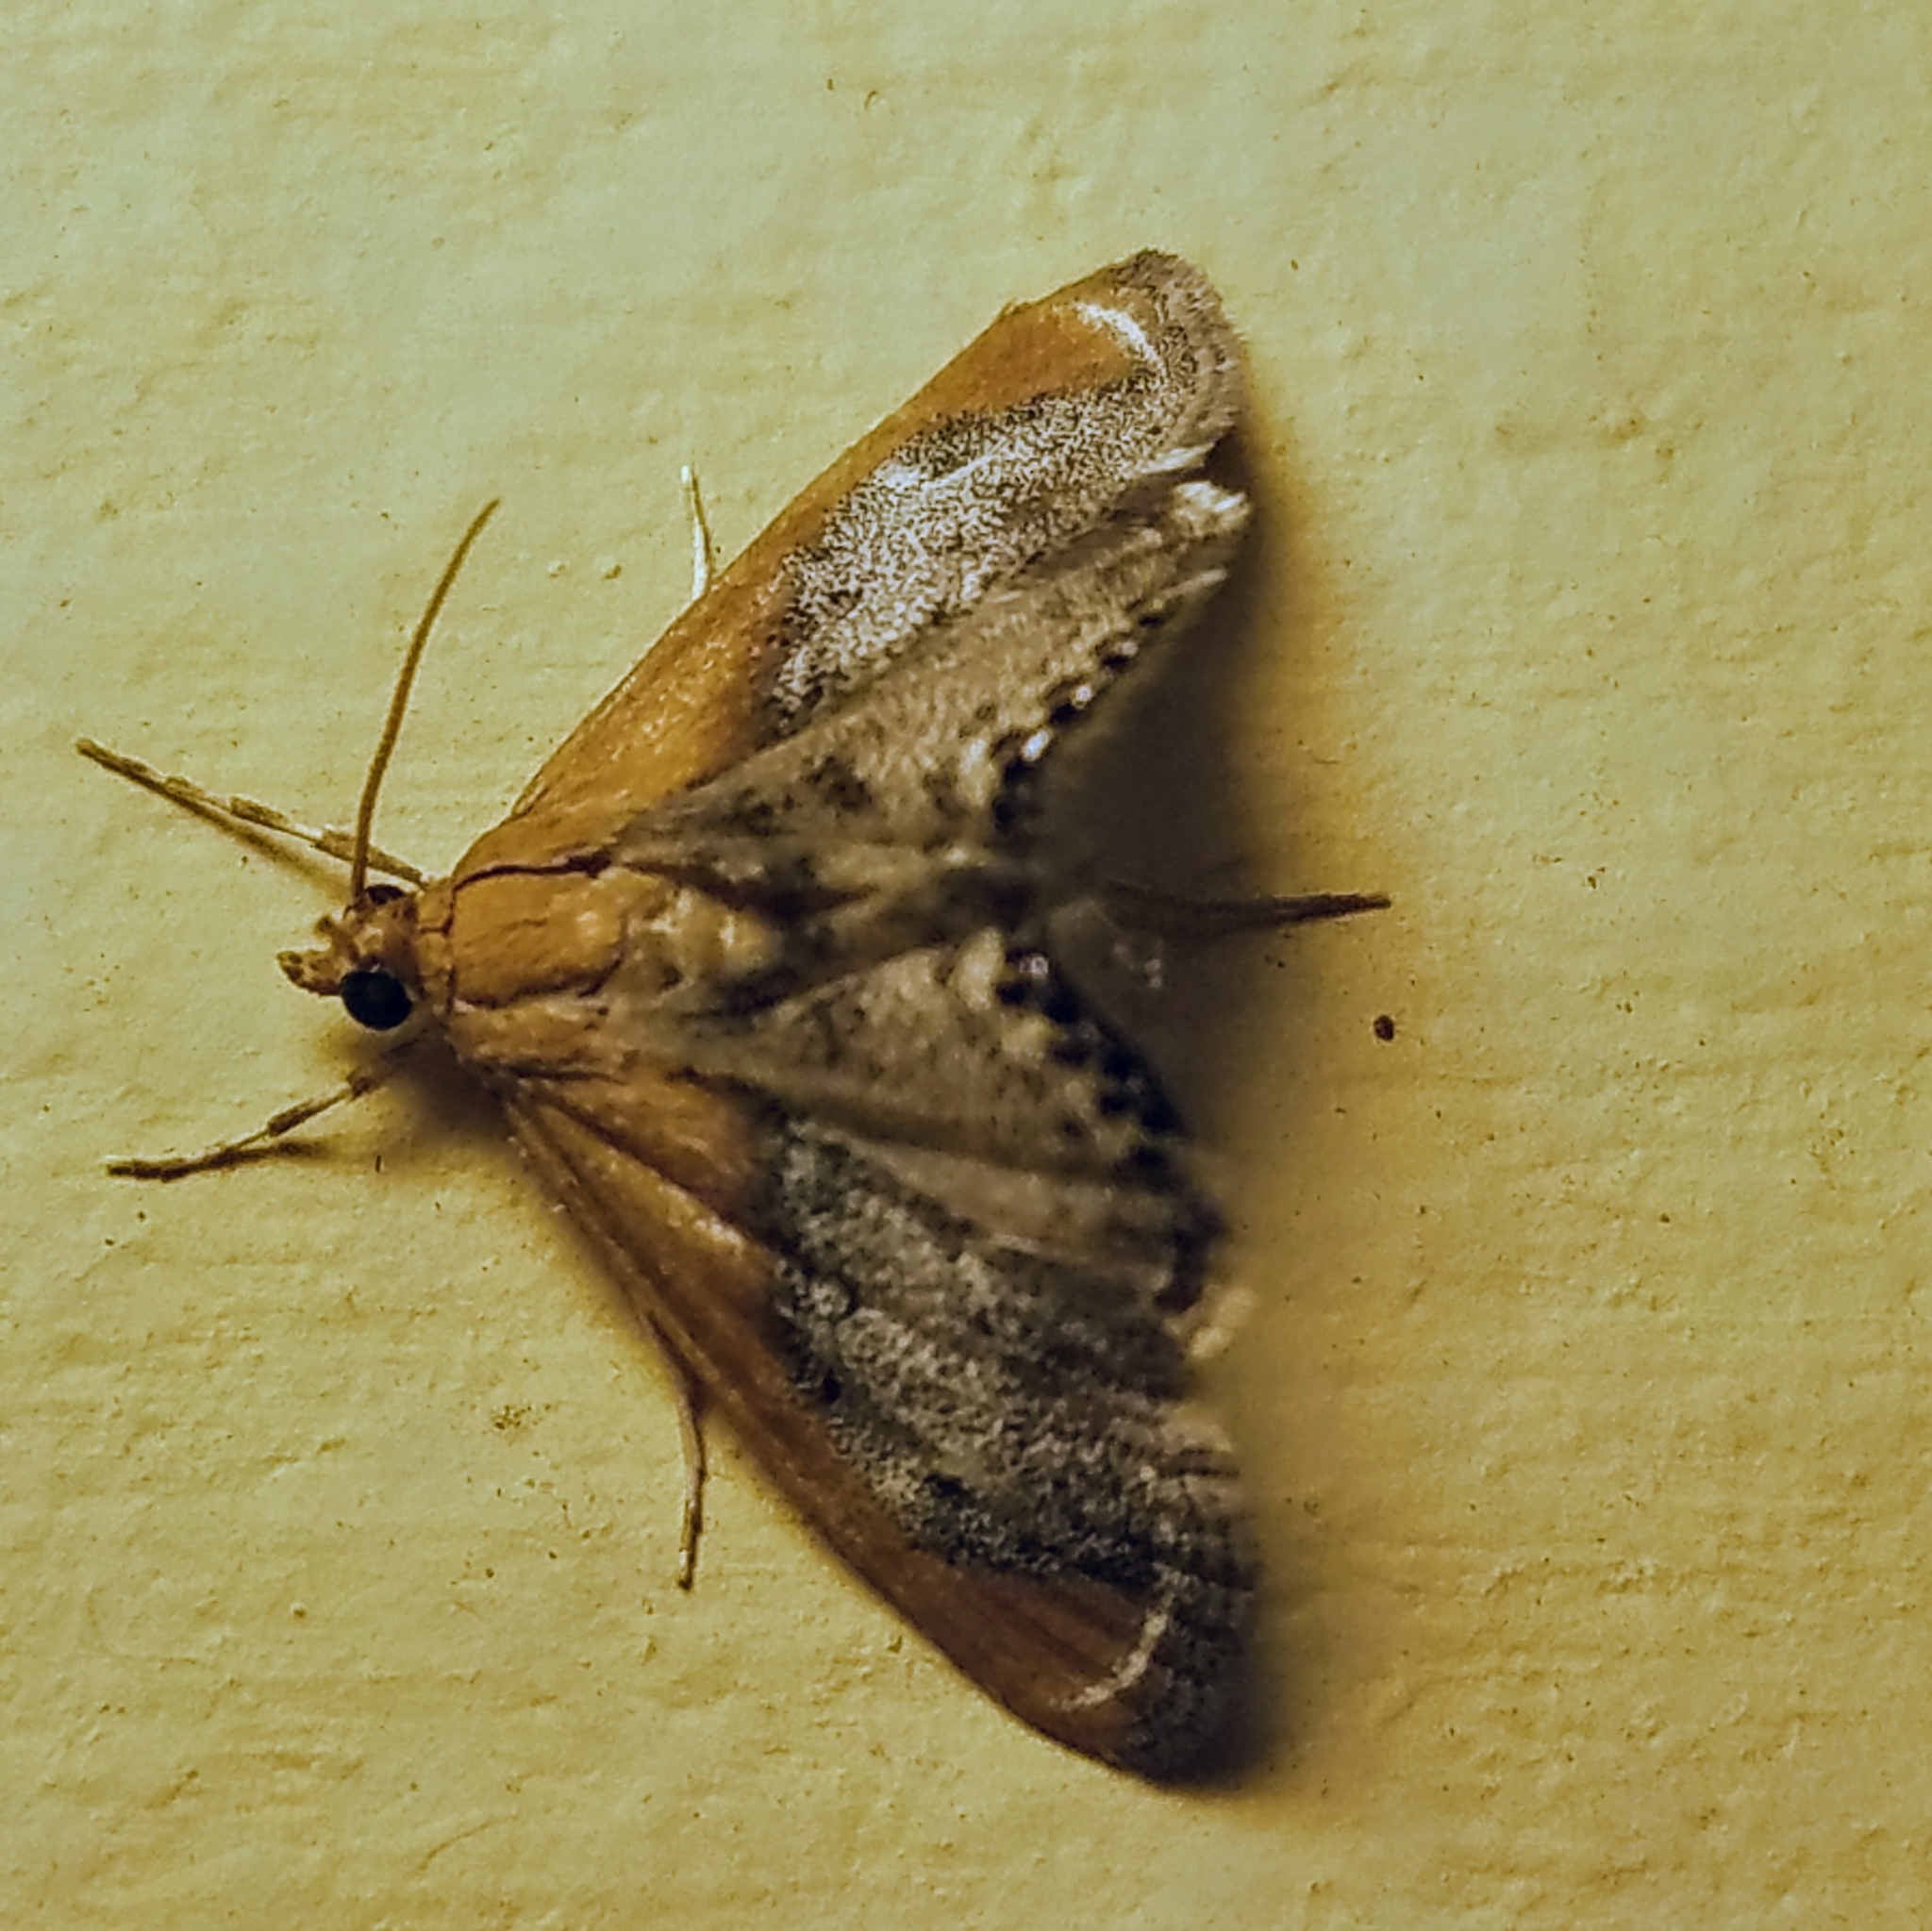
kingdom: Animalia
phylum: Arthropoda
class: Insecta
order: Lepidoptera
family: Crambidae
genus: Chalcoela
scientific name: Chalcoela iphitalis
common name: Sooty-winged chalcoela moth
